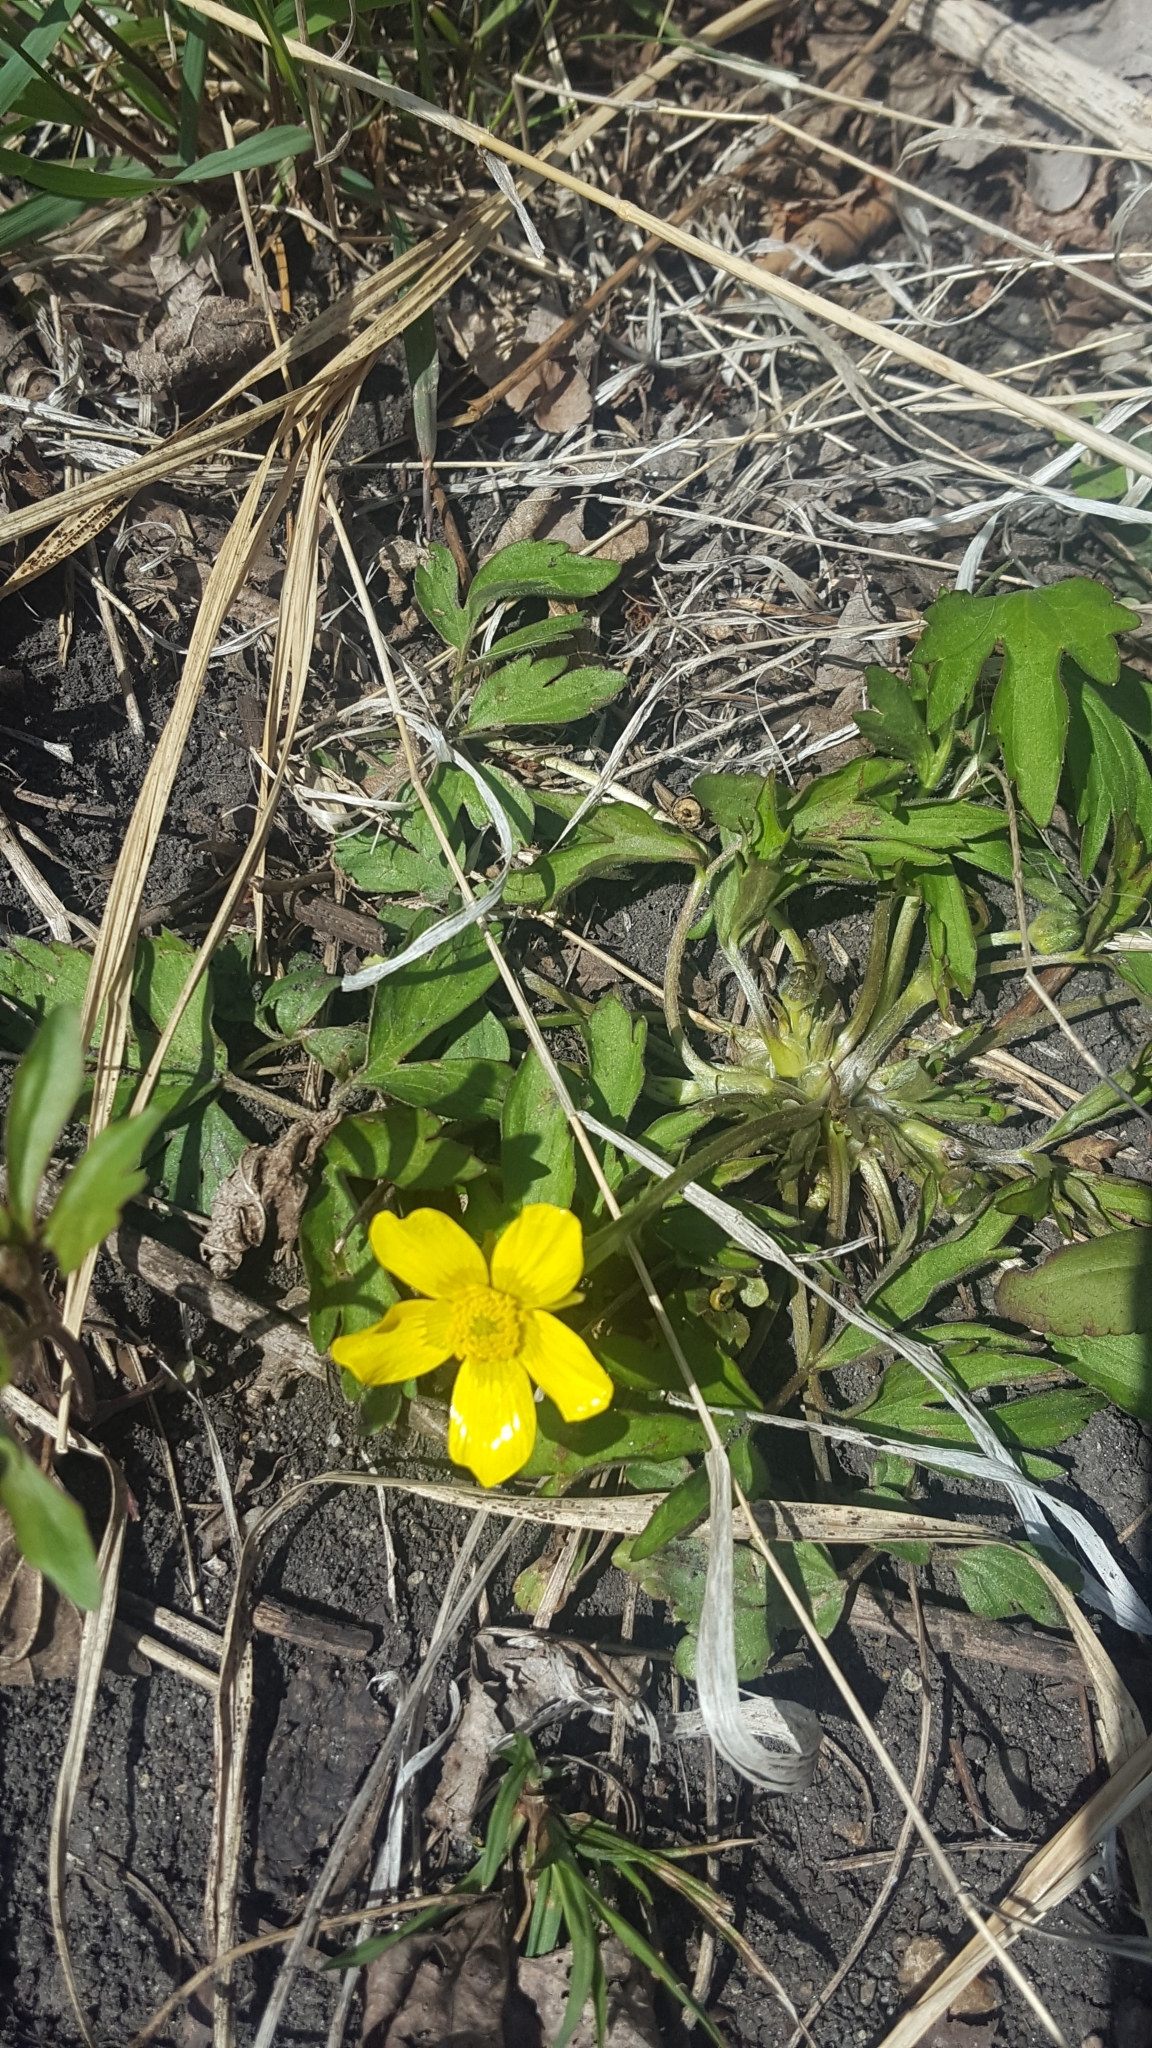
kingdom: Plantae
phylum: Tracheophyta
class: Magnoliopsida
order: Ranunculales
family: Ranunculaceae
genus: Ranunculus
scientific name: Ranunculus hispidus
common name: Bristly buttercup
